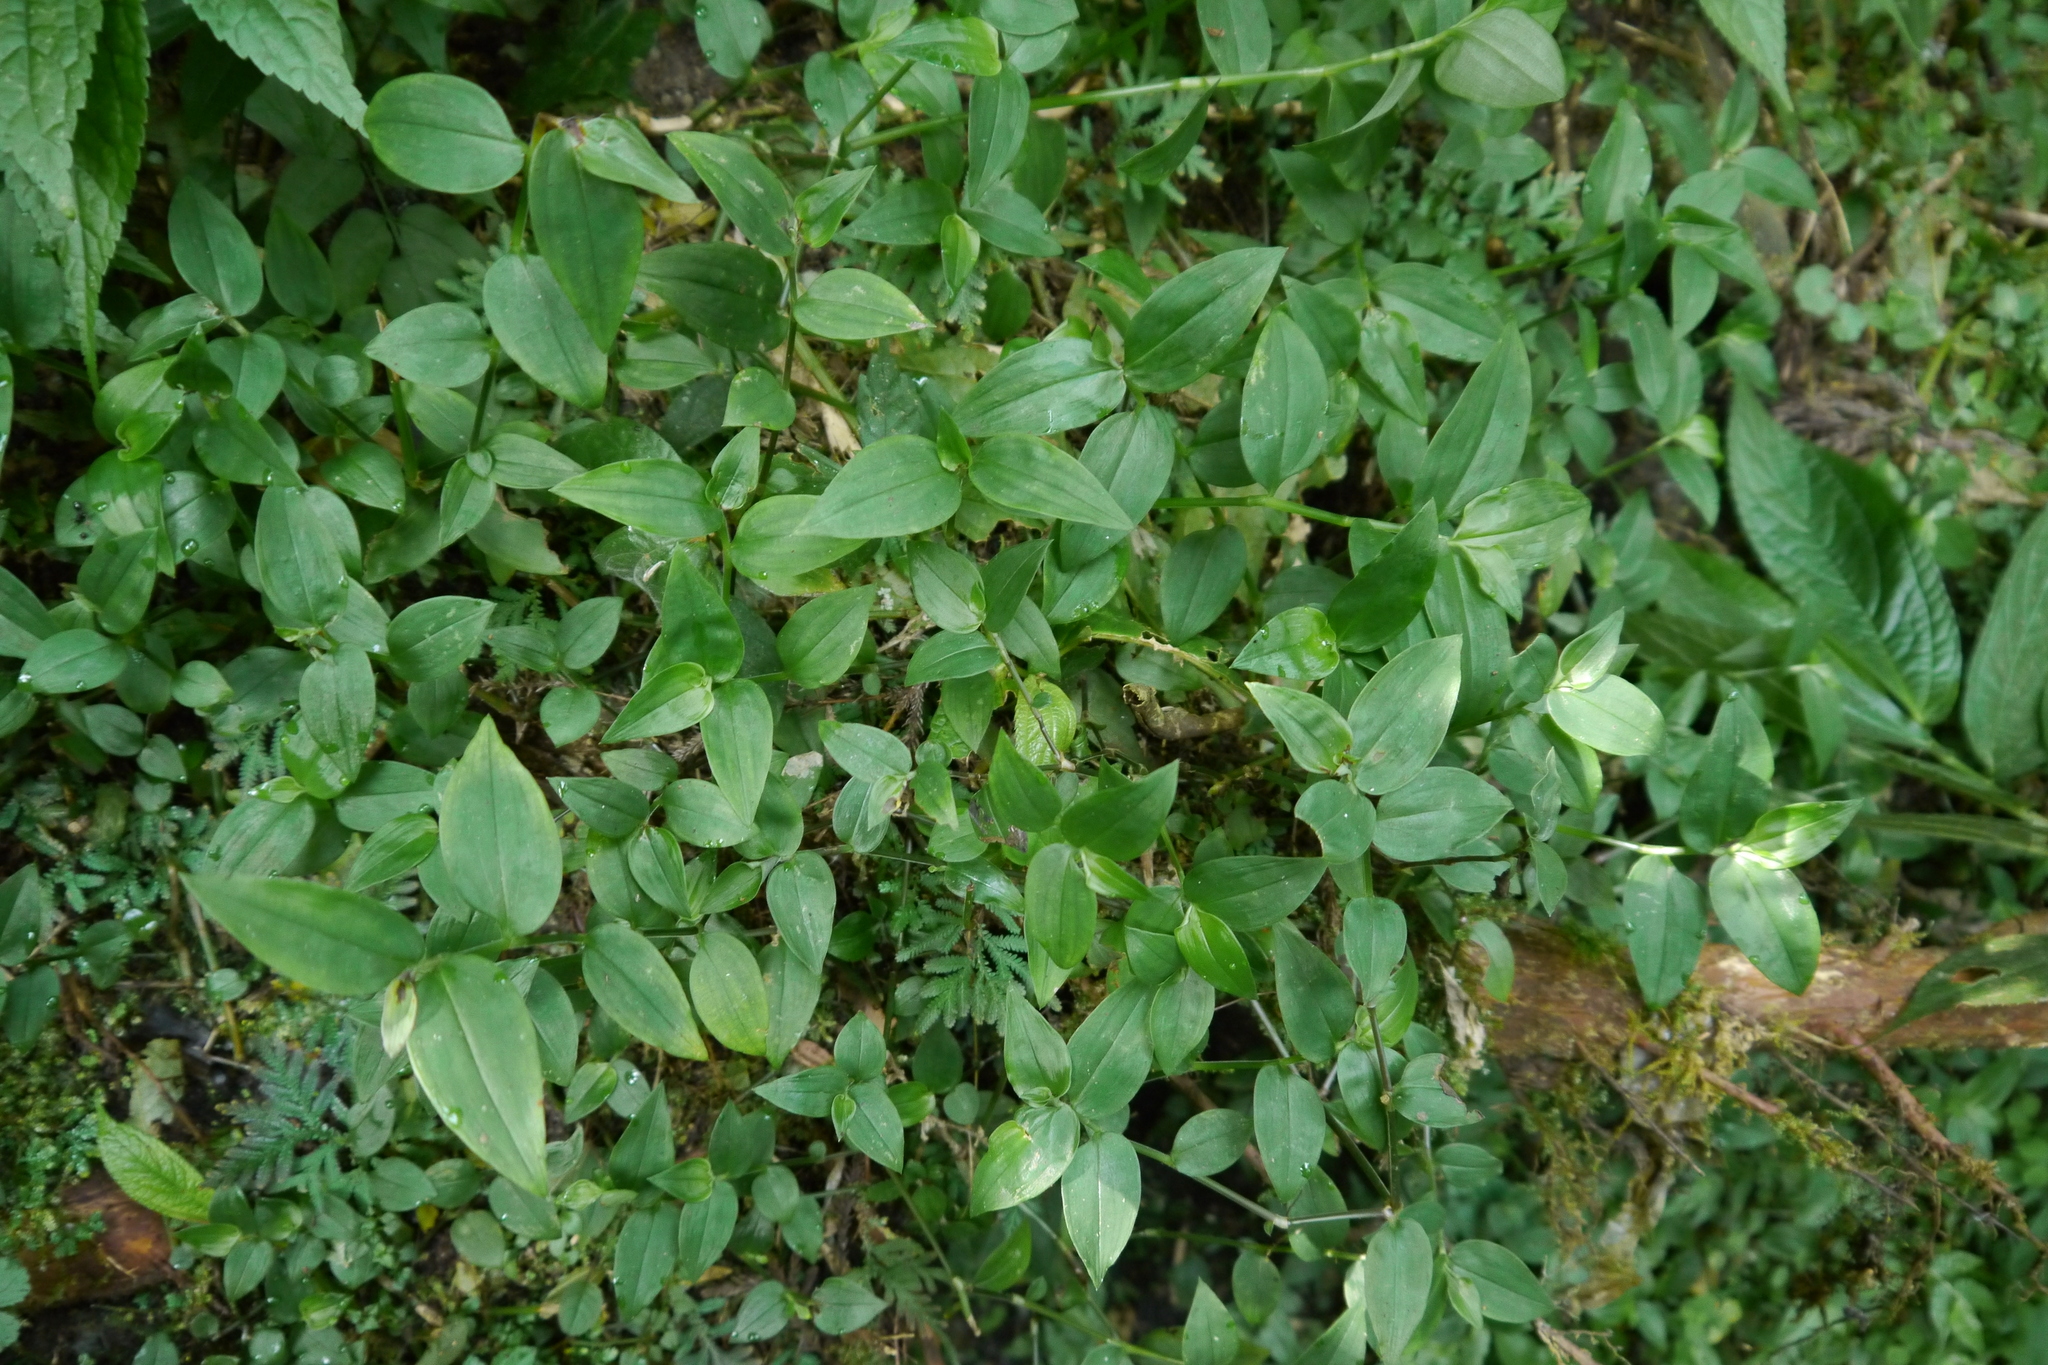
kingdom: Plantae
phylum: Tracheophyta
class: Liliopsida
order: Commelinales
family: Commelinaceae
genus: Tradescantia
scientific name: Tradescantia fluminensis
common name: Wandering-jew
